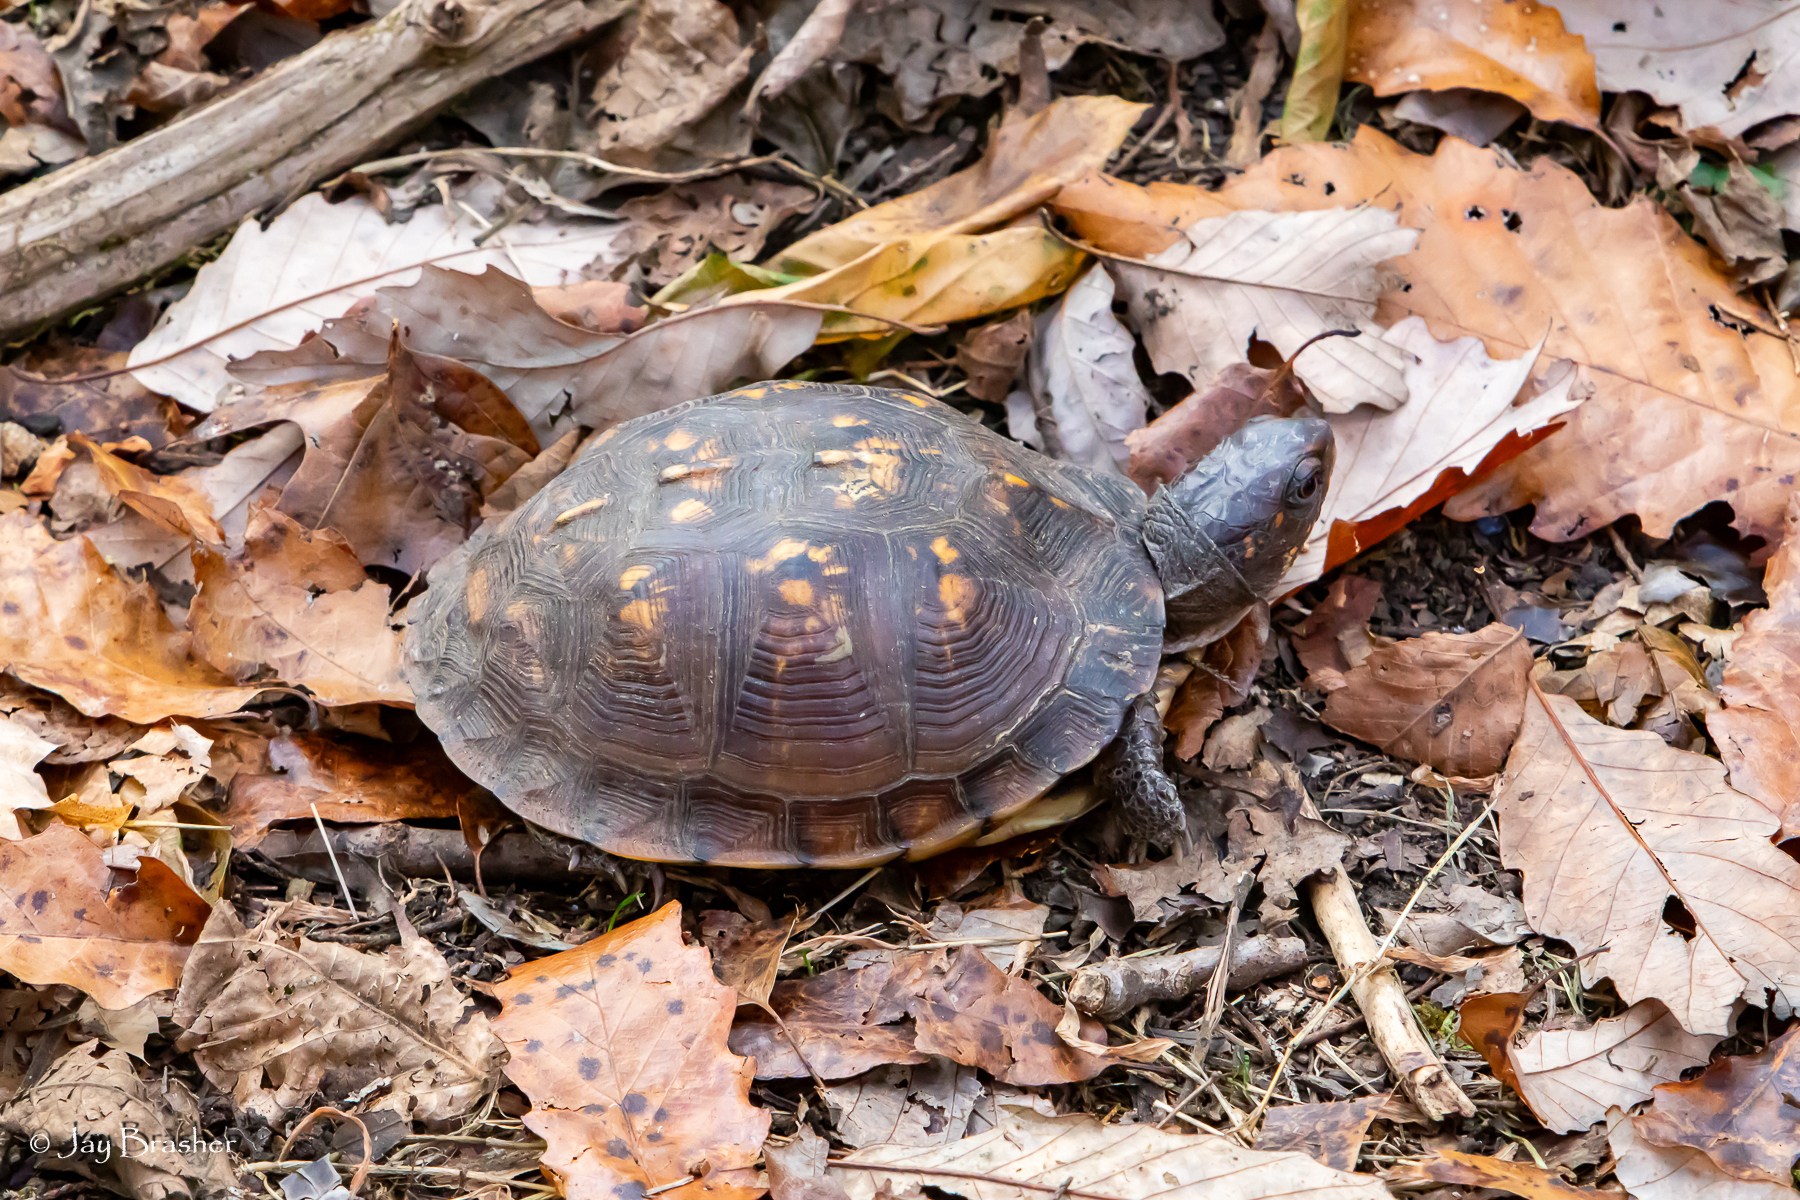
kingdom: Animalia
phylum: Chordata
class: Testudines
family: Emydidae
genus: Terrapene
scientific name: Terrapene carolina
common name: Common box turtle
